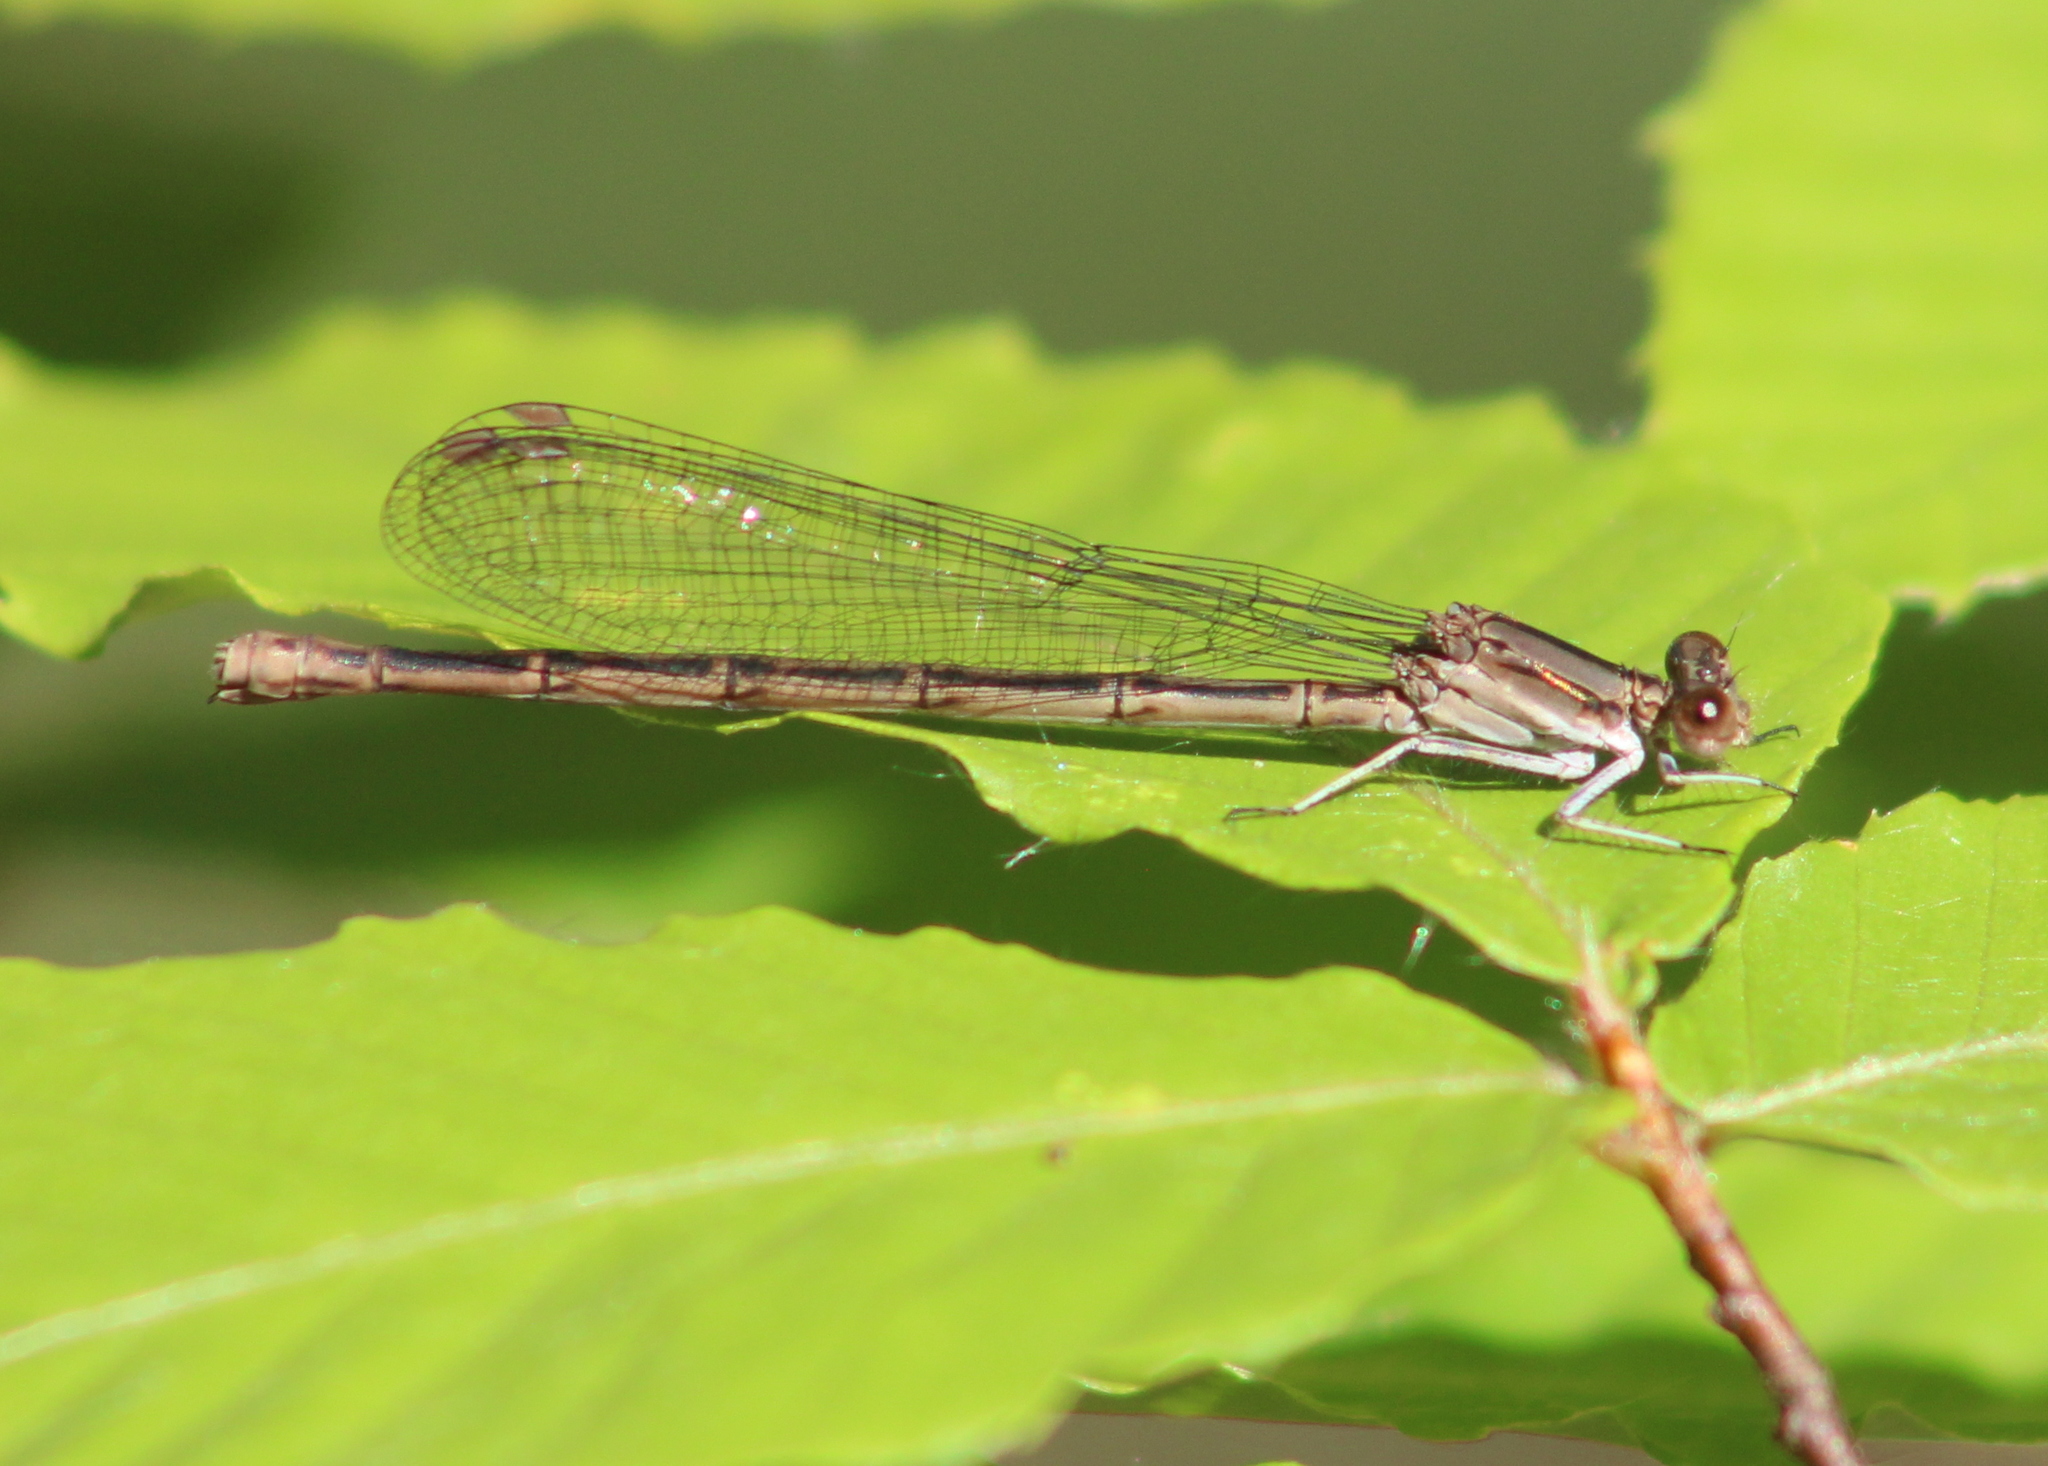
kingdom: Animalia
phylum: Arthropoda
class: Insecta
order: Odonata
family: Coenagrionidae
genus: Argia
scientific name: Argia fumipennis
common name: Variable dancer
